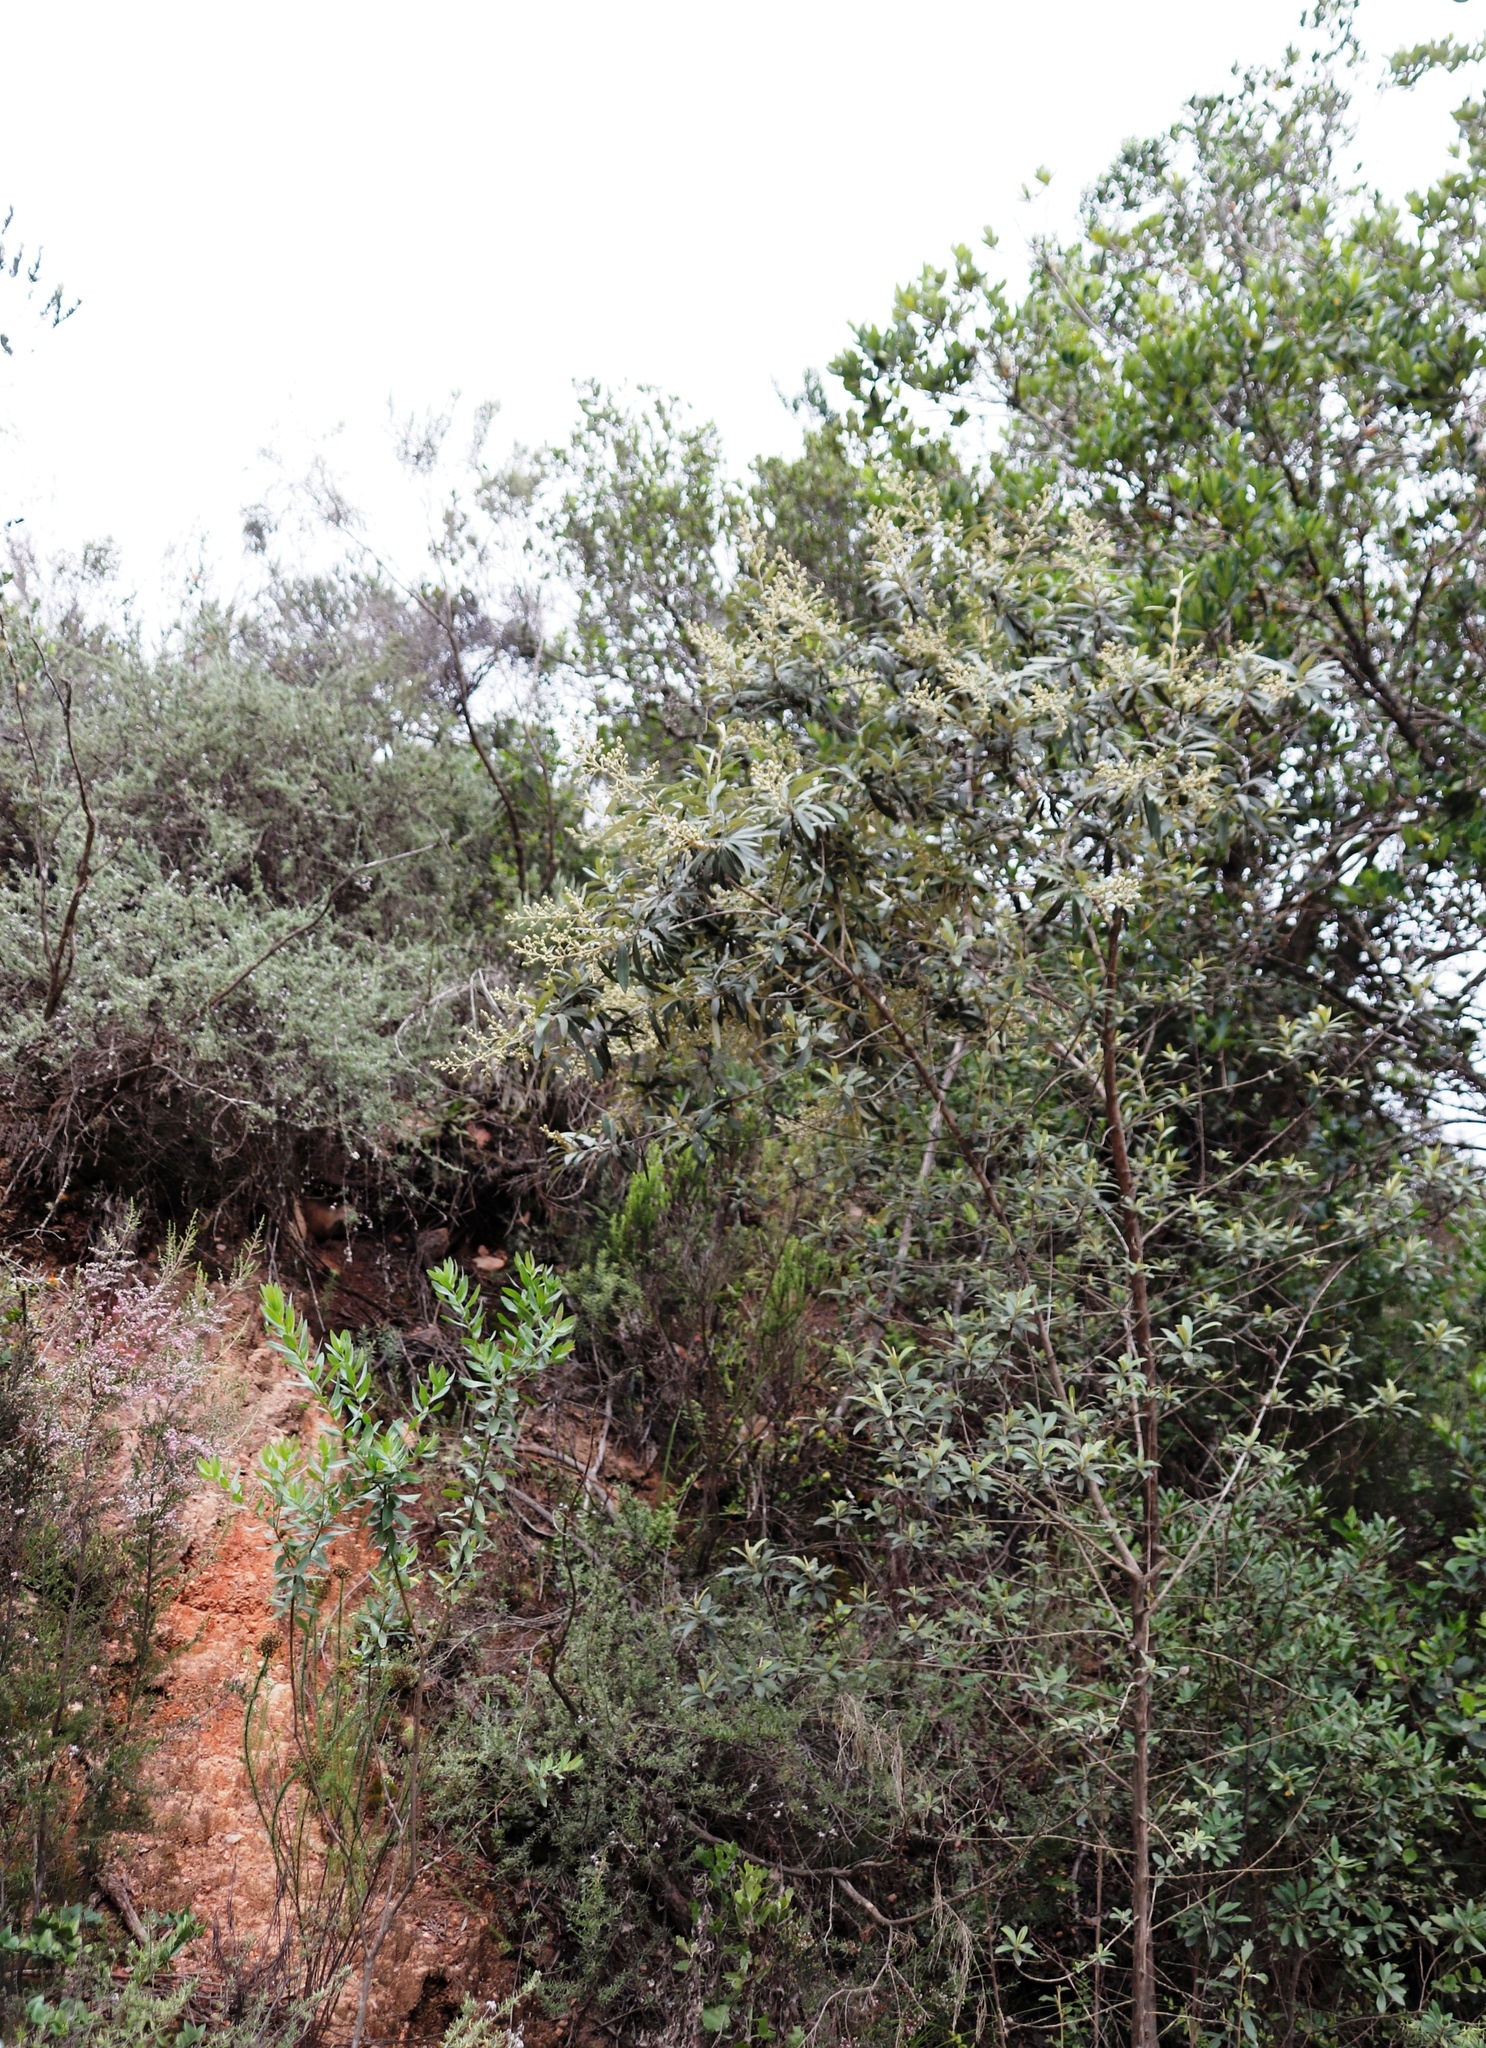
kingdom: Plantae
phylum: Tracheophyta
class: Magnoliopsida
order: Asterales
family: Asteraceae
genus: Tarchonanthus
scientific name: Tarchonanthus littoralis
